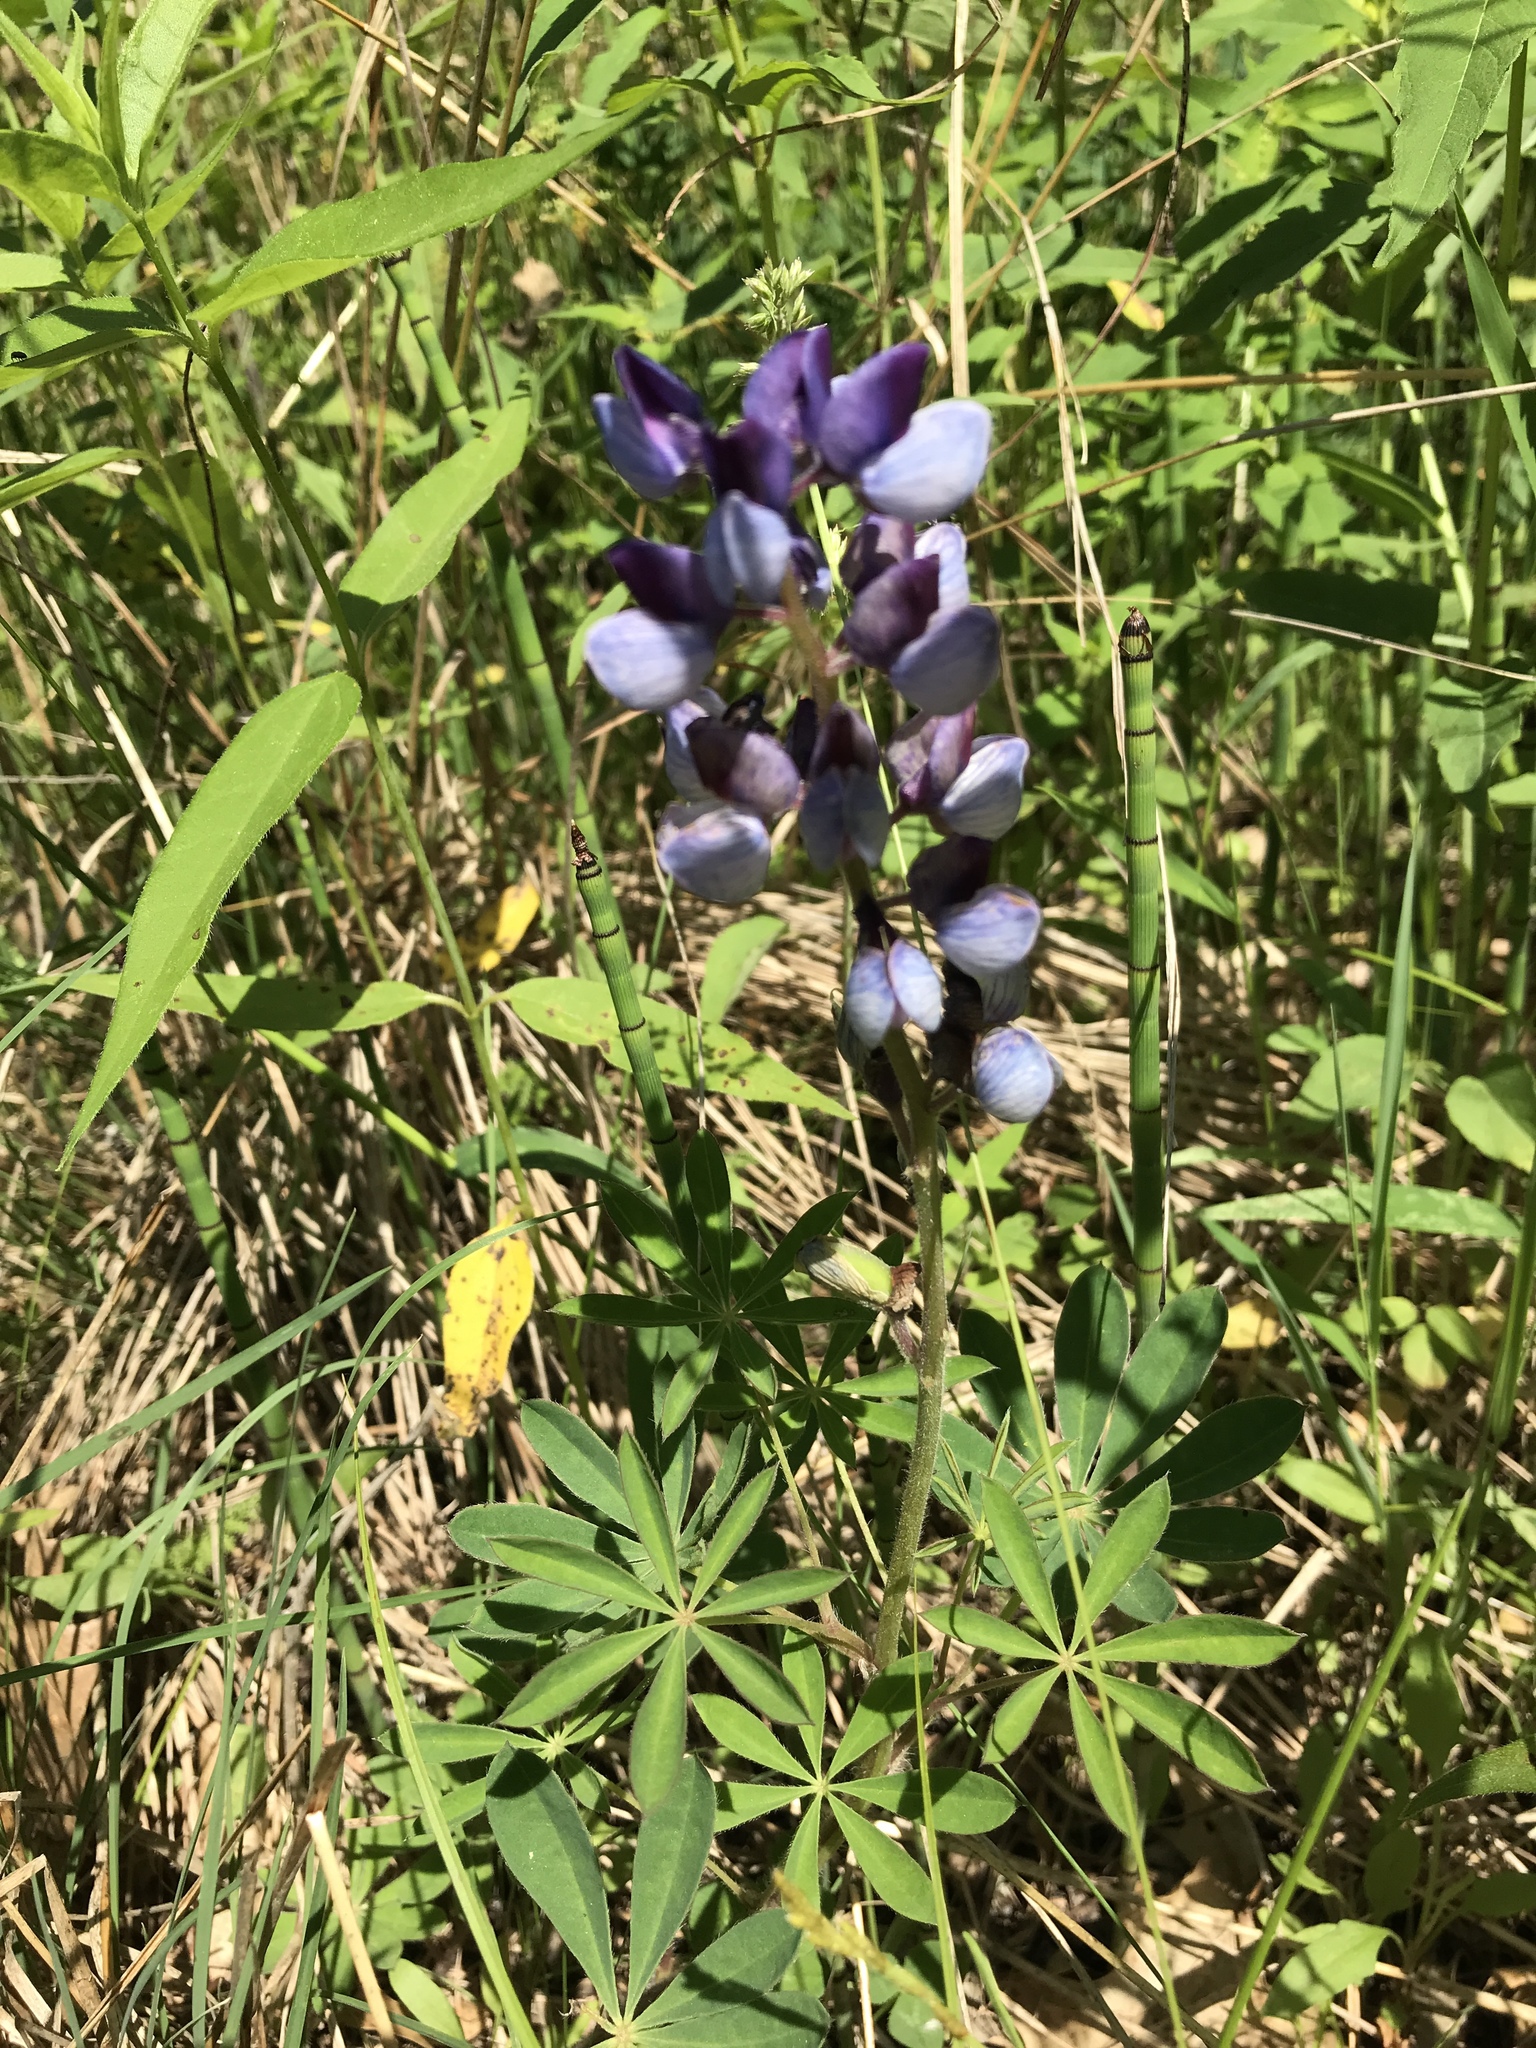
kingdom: Plantae
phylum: Tracheophyta
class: Magnoliopsida
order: Fabales
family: Fabaceae
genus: Lupinus
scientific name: Lupinus perennis
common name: Sundial lupine
